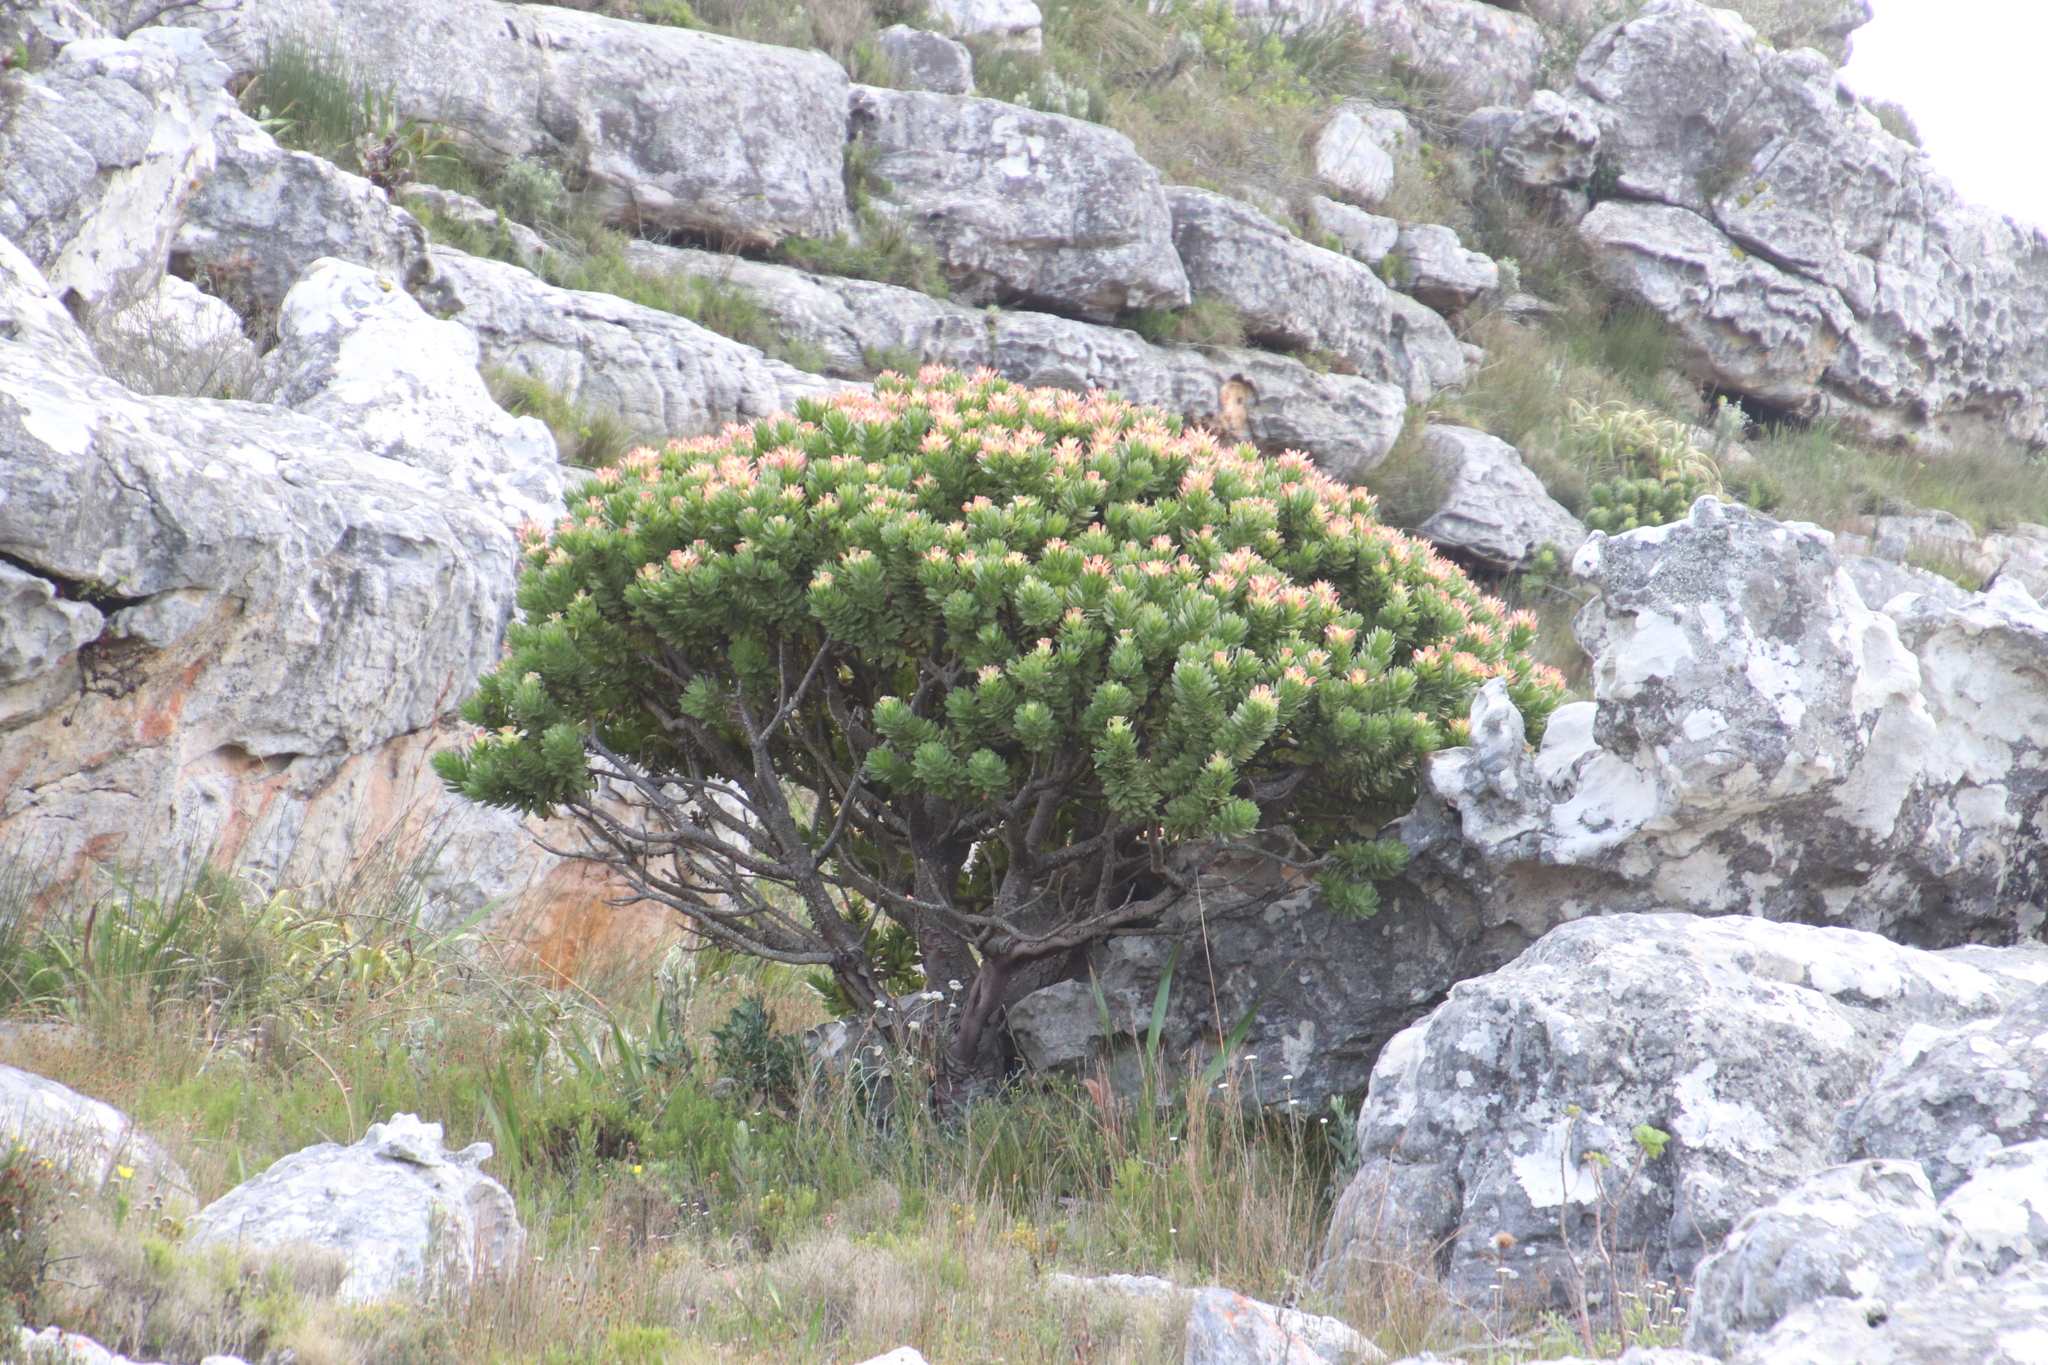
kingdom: Plantae
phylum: Tracheophyta
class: Magnoliopsida
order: Proteales
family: Proteaceae
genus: Mimetes
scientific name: Mimetes fimbriifolius
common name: Fringed bottlebrush
